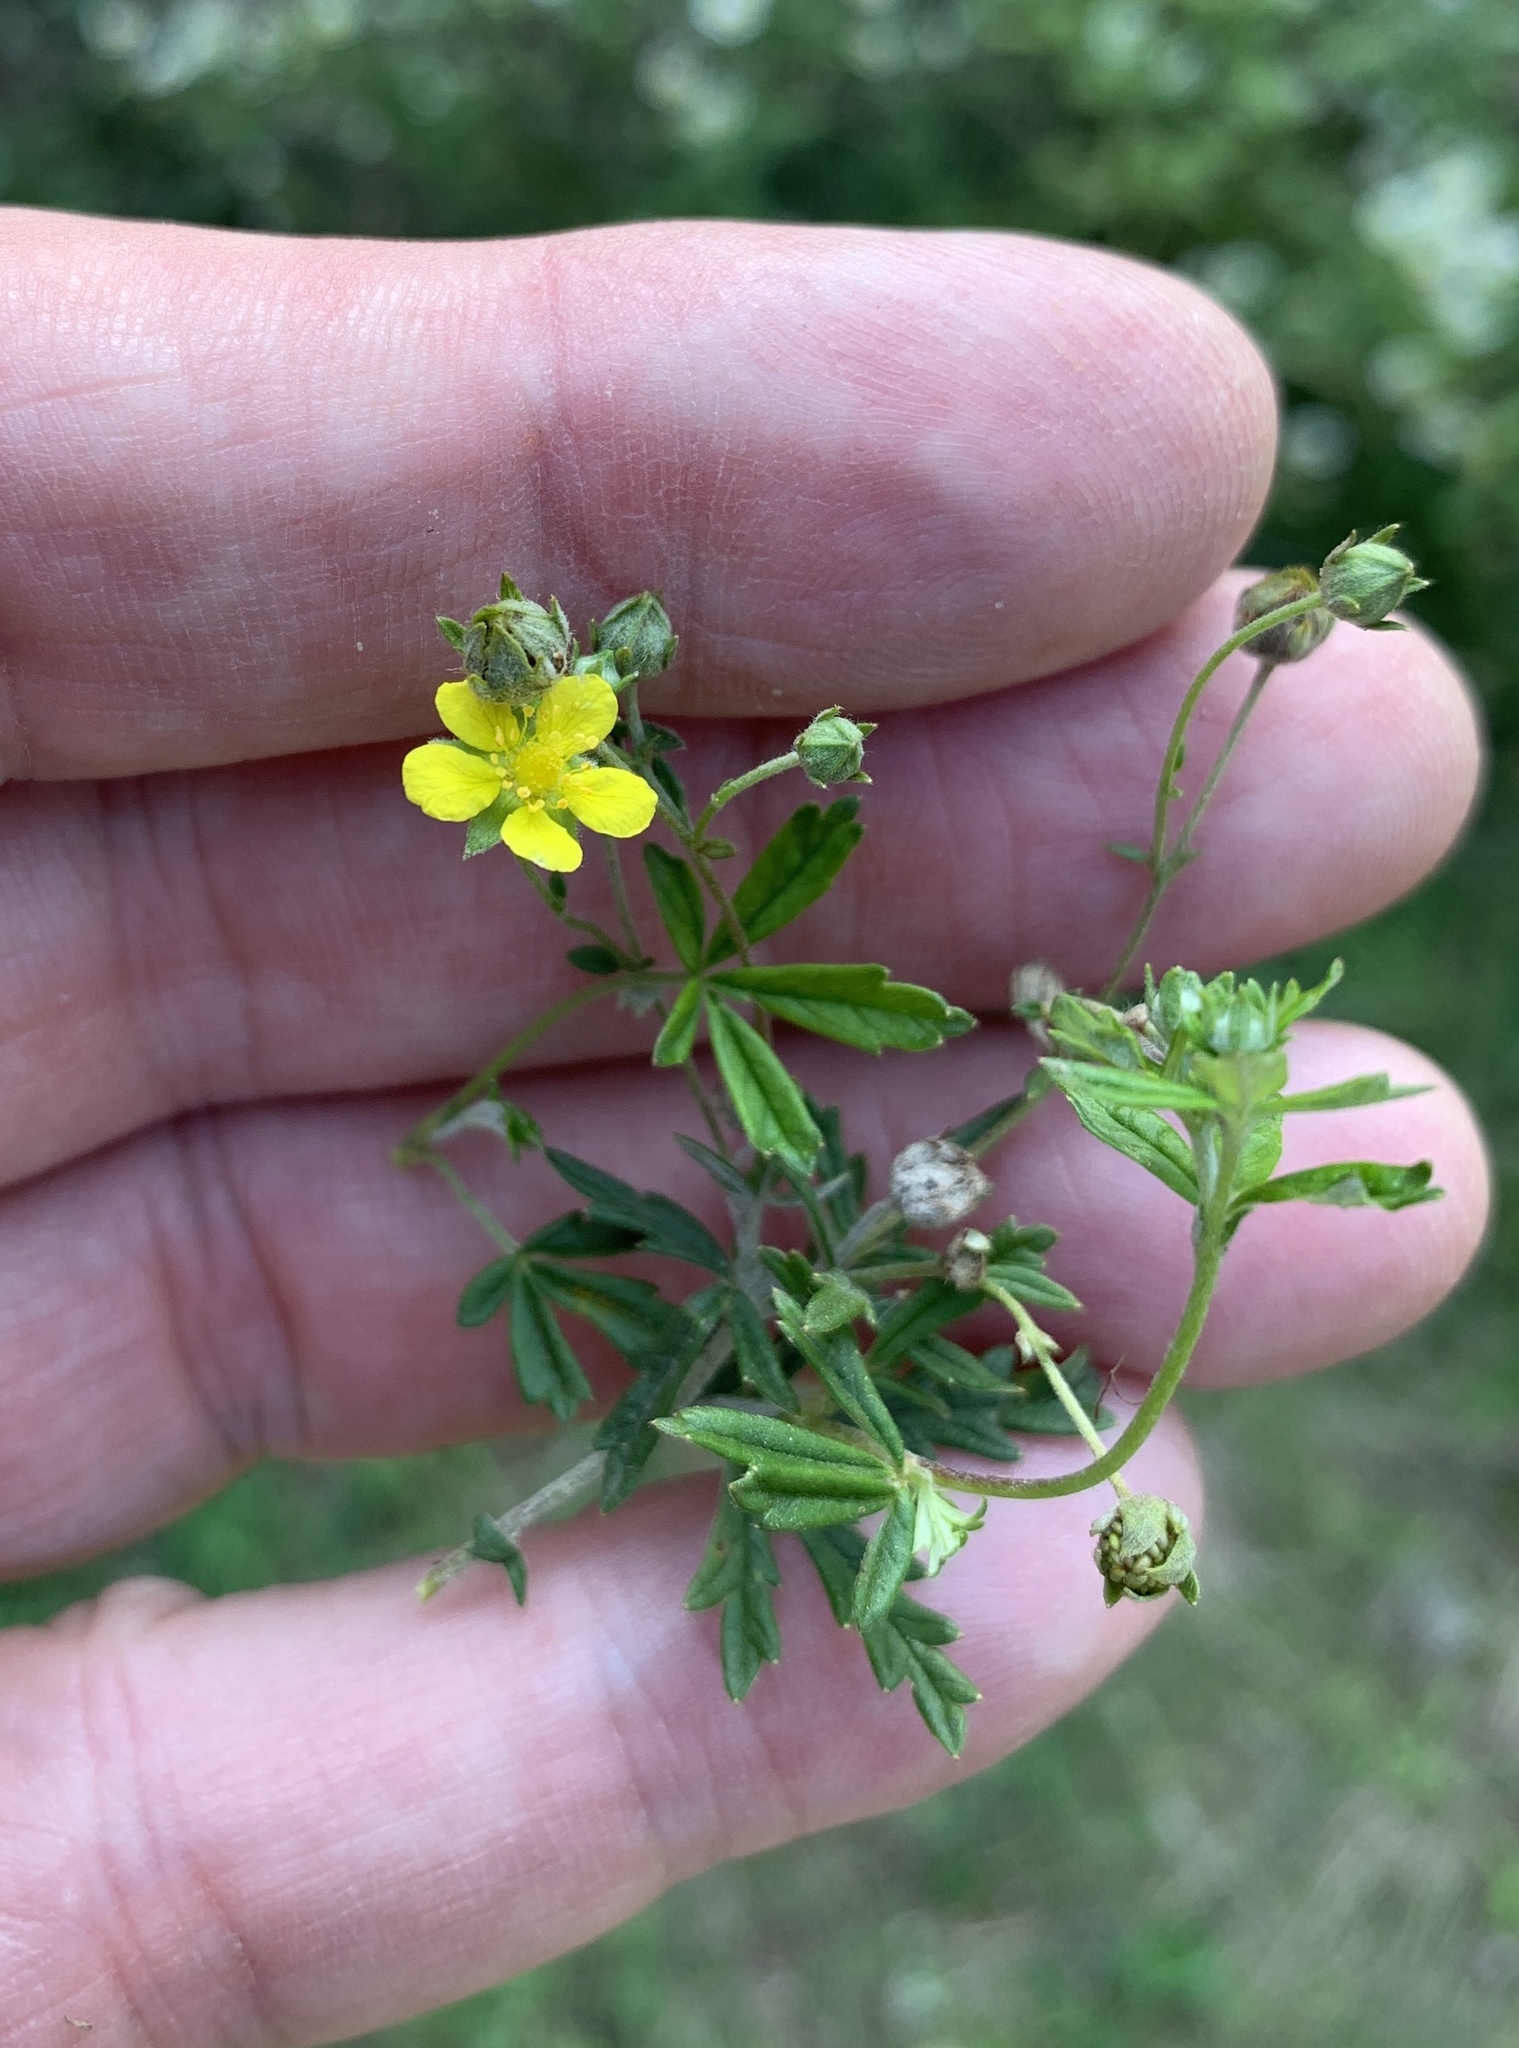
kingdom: Plantae
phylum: Tracheophyta
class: Magnoliopsida
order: Rosales
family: Rosaceae
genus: Potentilla
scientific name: Potentilla argentea
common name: Hoary cinquefoil
